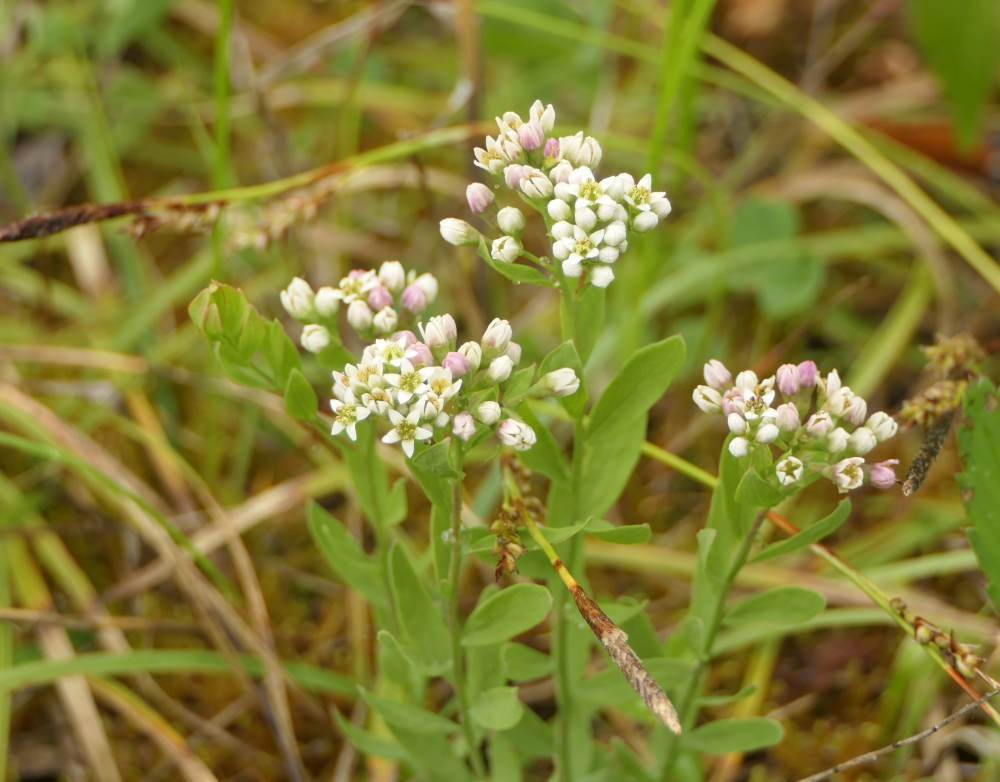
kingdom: Plantae
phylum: Tracheophyta
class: Magnoliopsida
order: Santalales
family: Comandraceae
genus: Comandra
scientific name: Comandra umbellata
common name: Bastard toadflax
